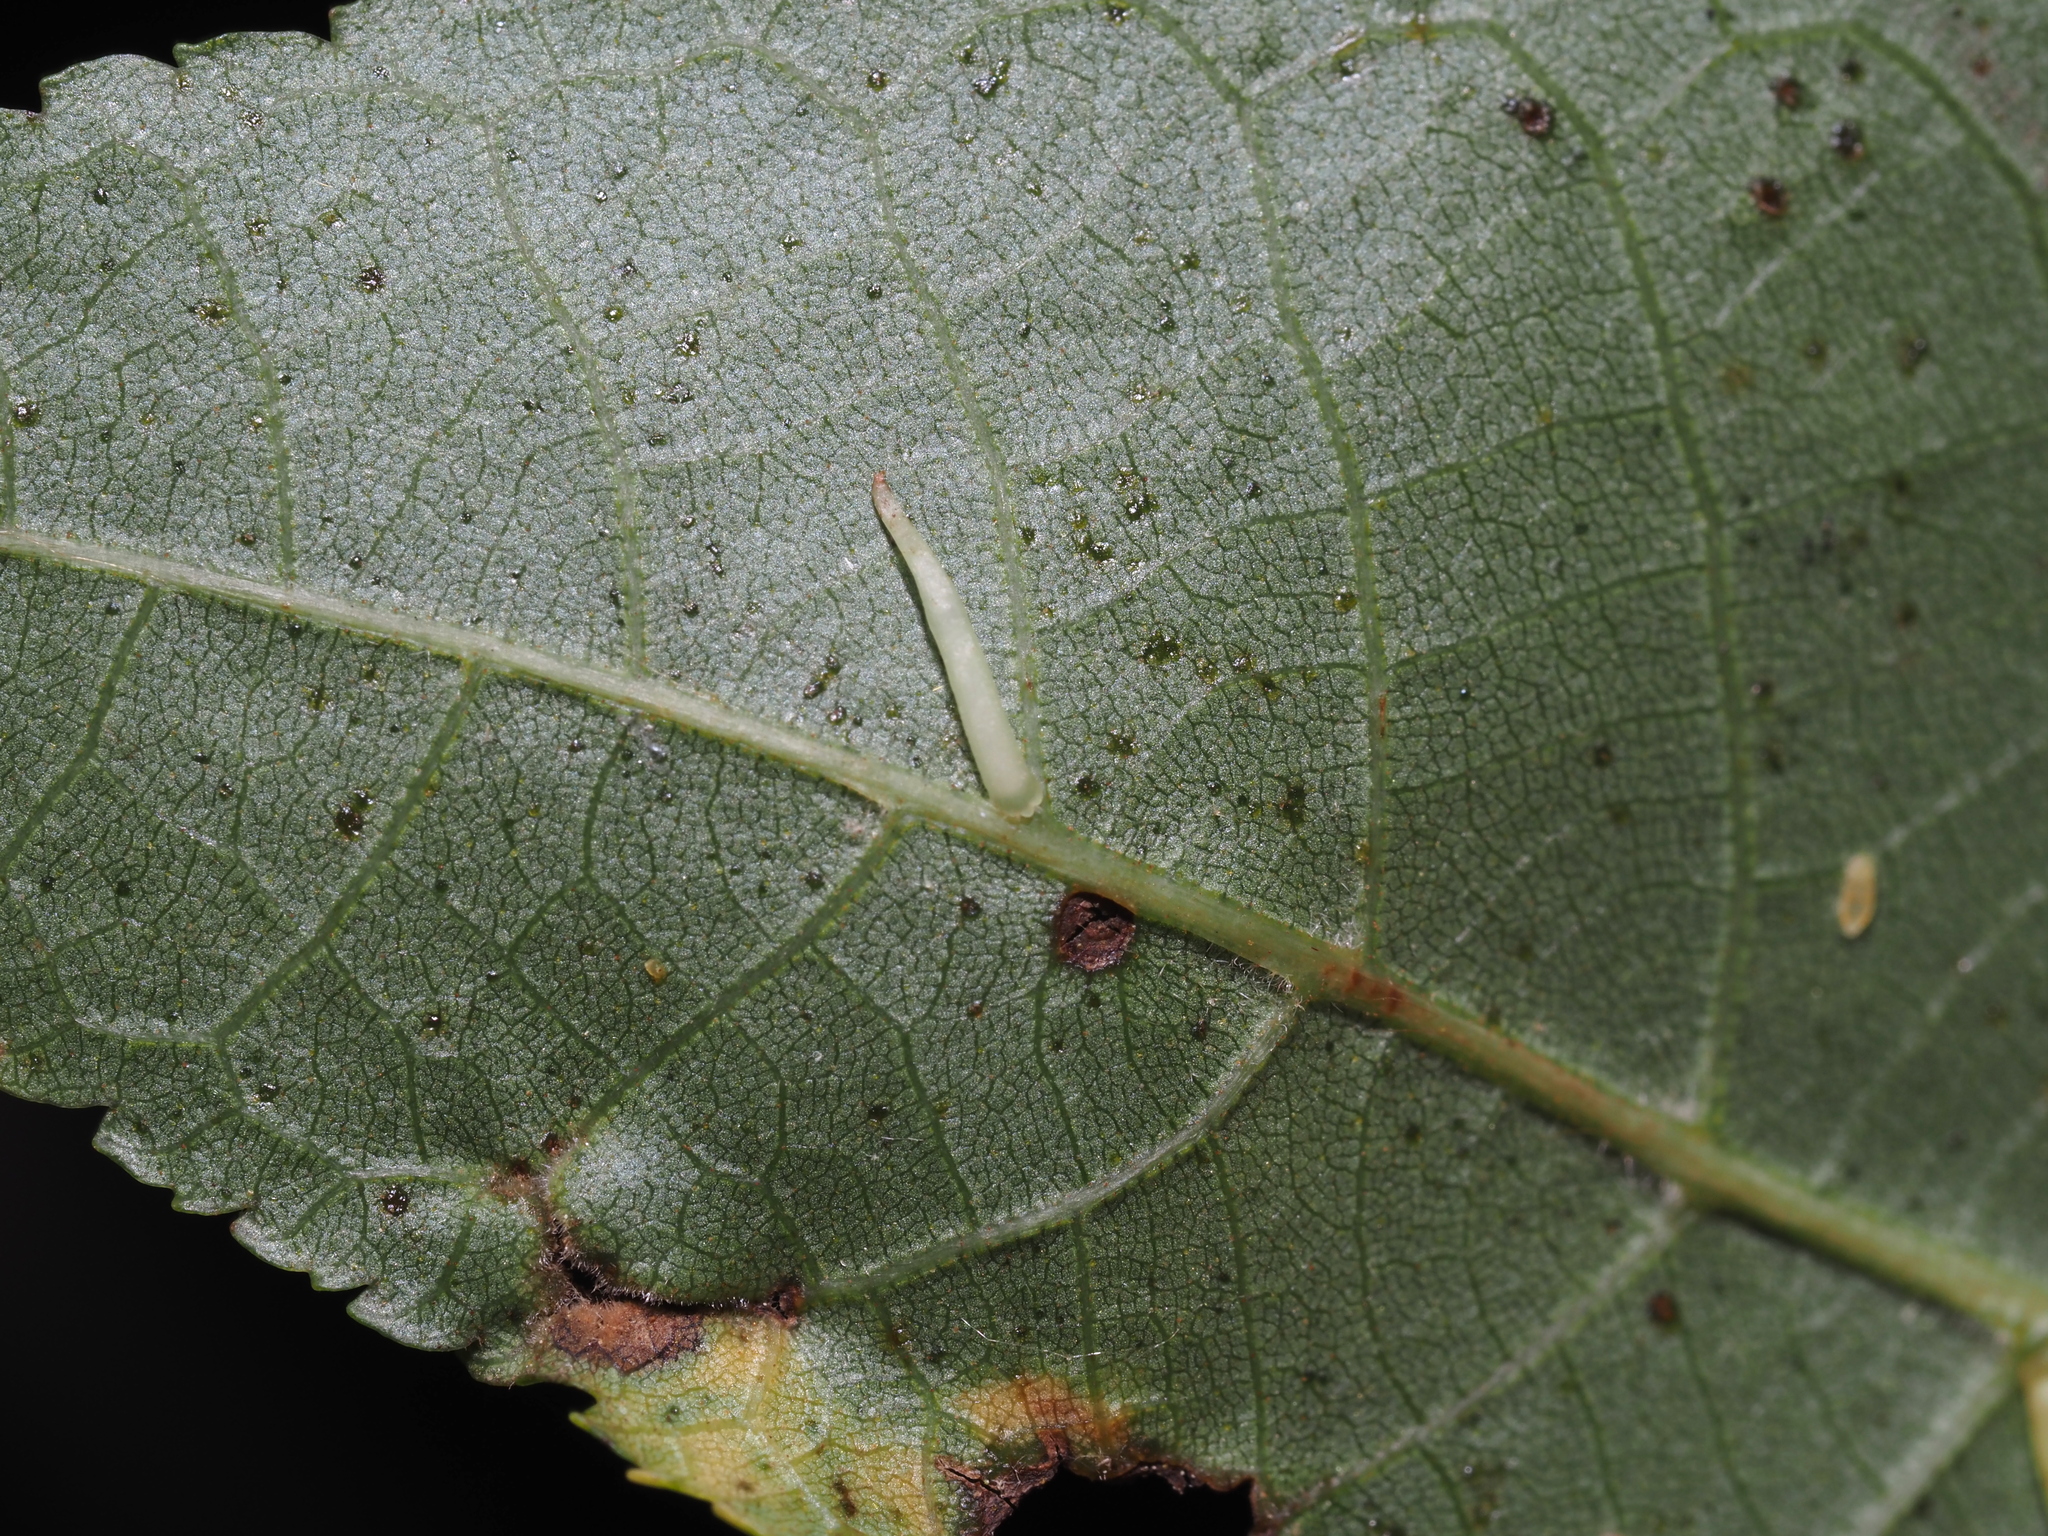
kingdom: Animalia
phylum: Arthropoda
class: Insecta
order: Diptera
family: Cecidomyiidae
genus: Caryomyia
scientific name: Caryomyia
